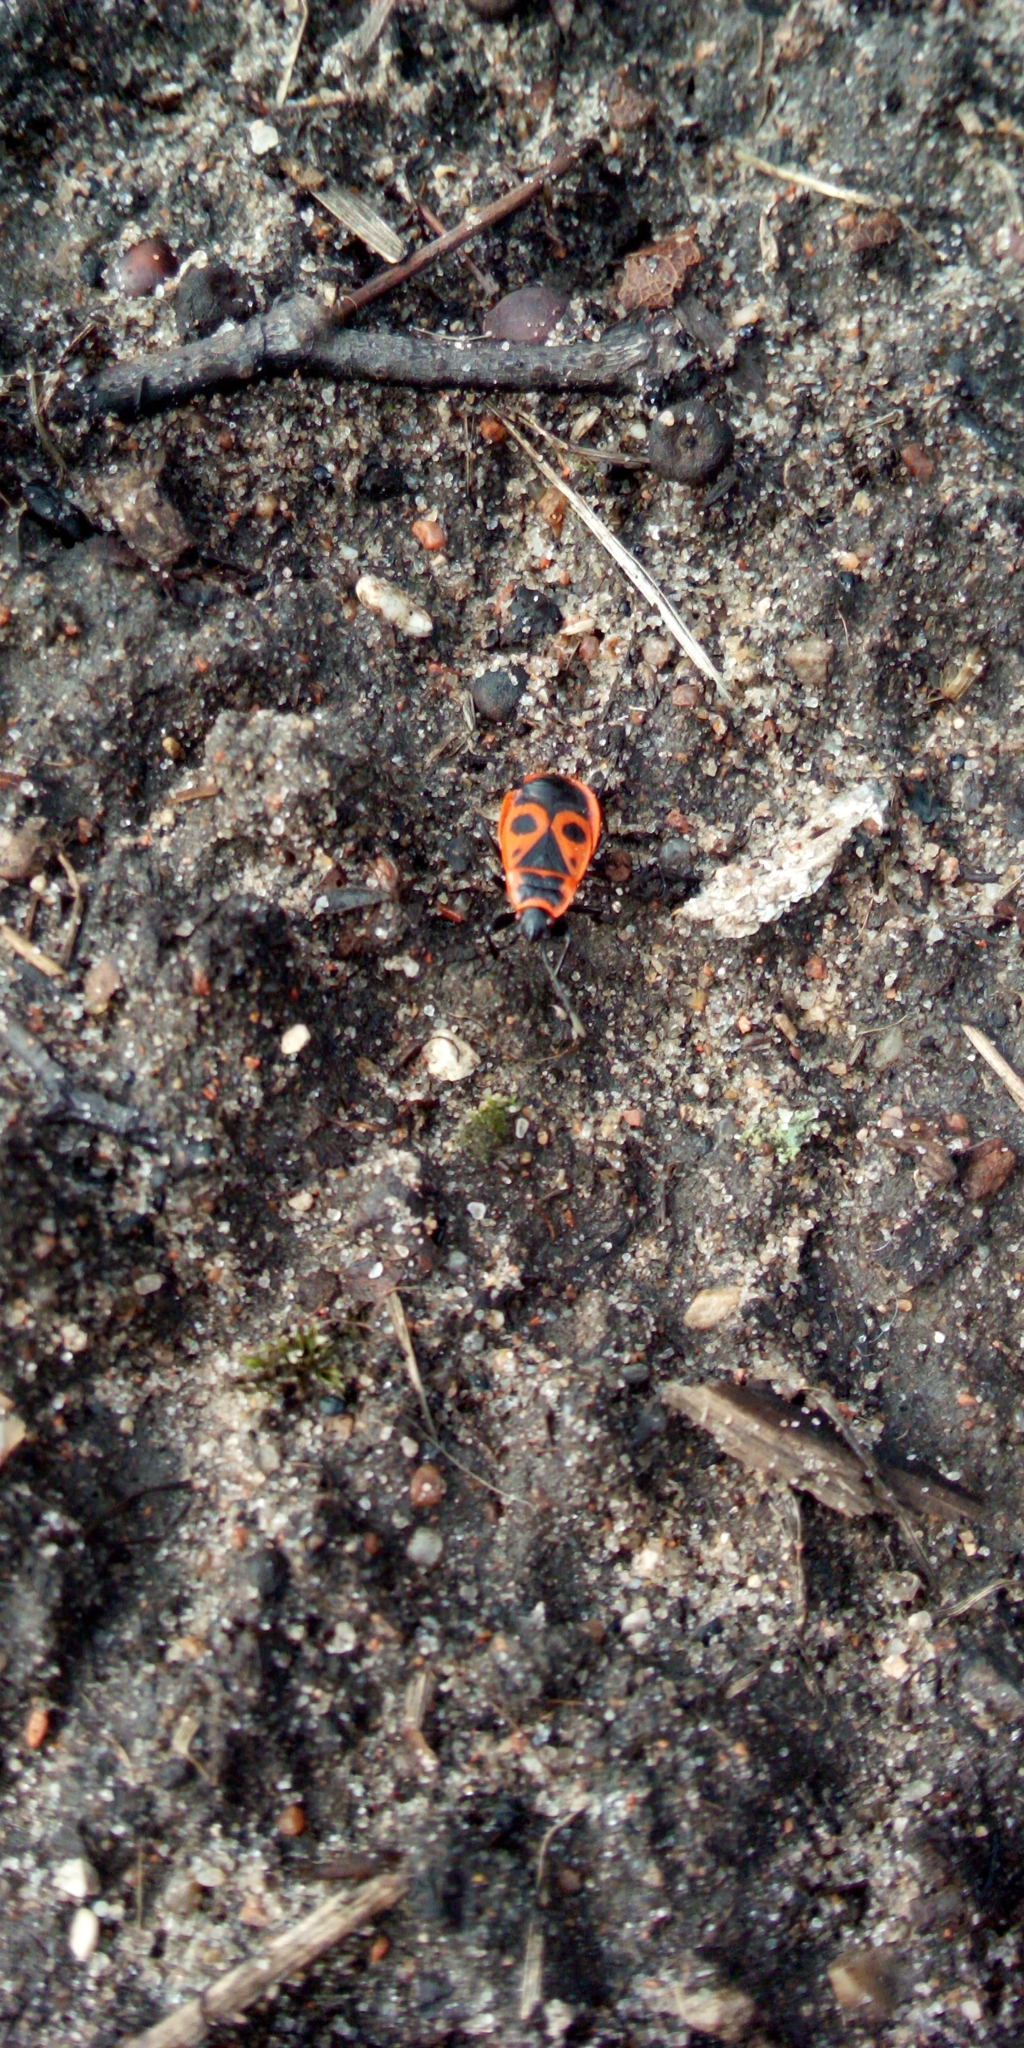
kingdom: Animalia
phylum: Arthropoda
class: Insecta
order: Hemiptera
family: Pyrrhocoridae
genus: Pyrrhocoris
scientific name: Pyrrhocoris apterus
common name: Firebug
